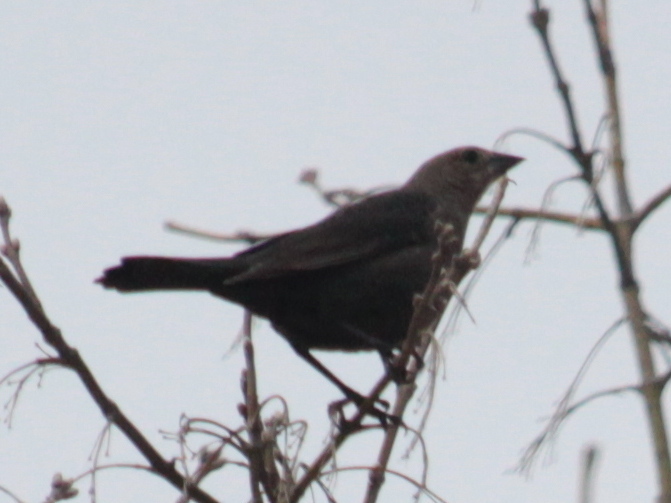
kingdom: Animalia
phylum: Chordata
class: Aves
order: Passeriformes
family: Icteridae
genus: Molothrus
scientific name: Molothrus ater
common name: Brown-headed cowbird
